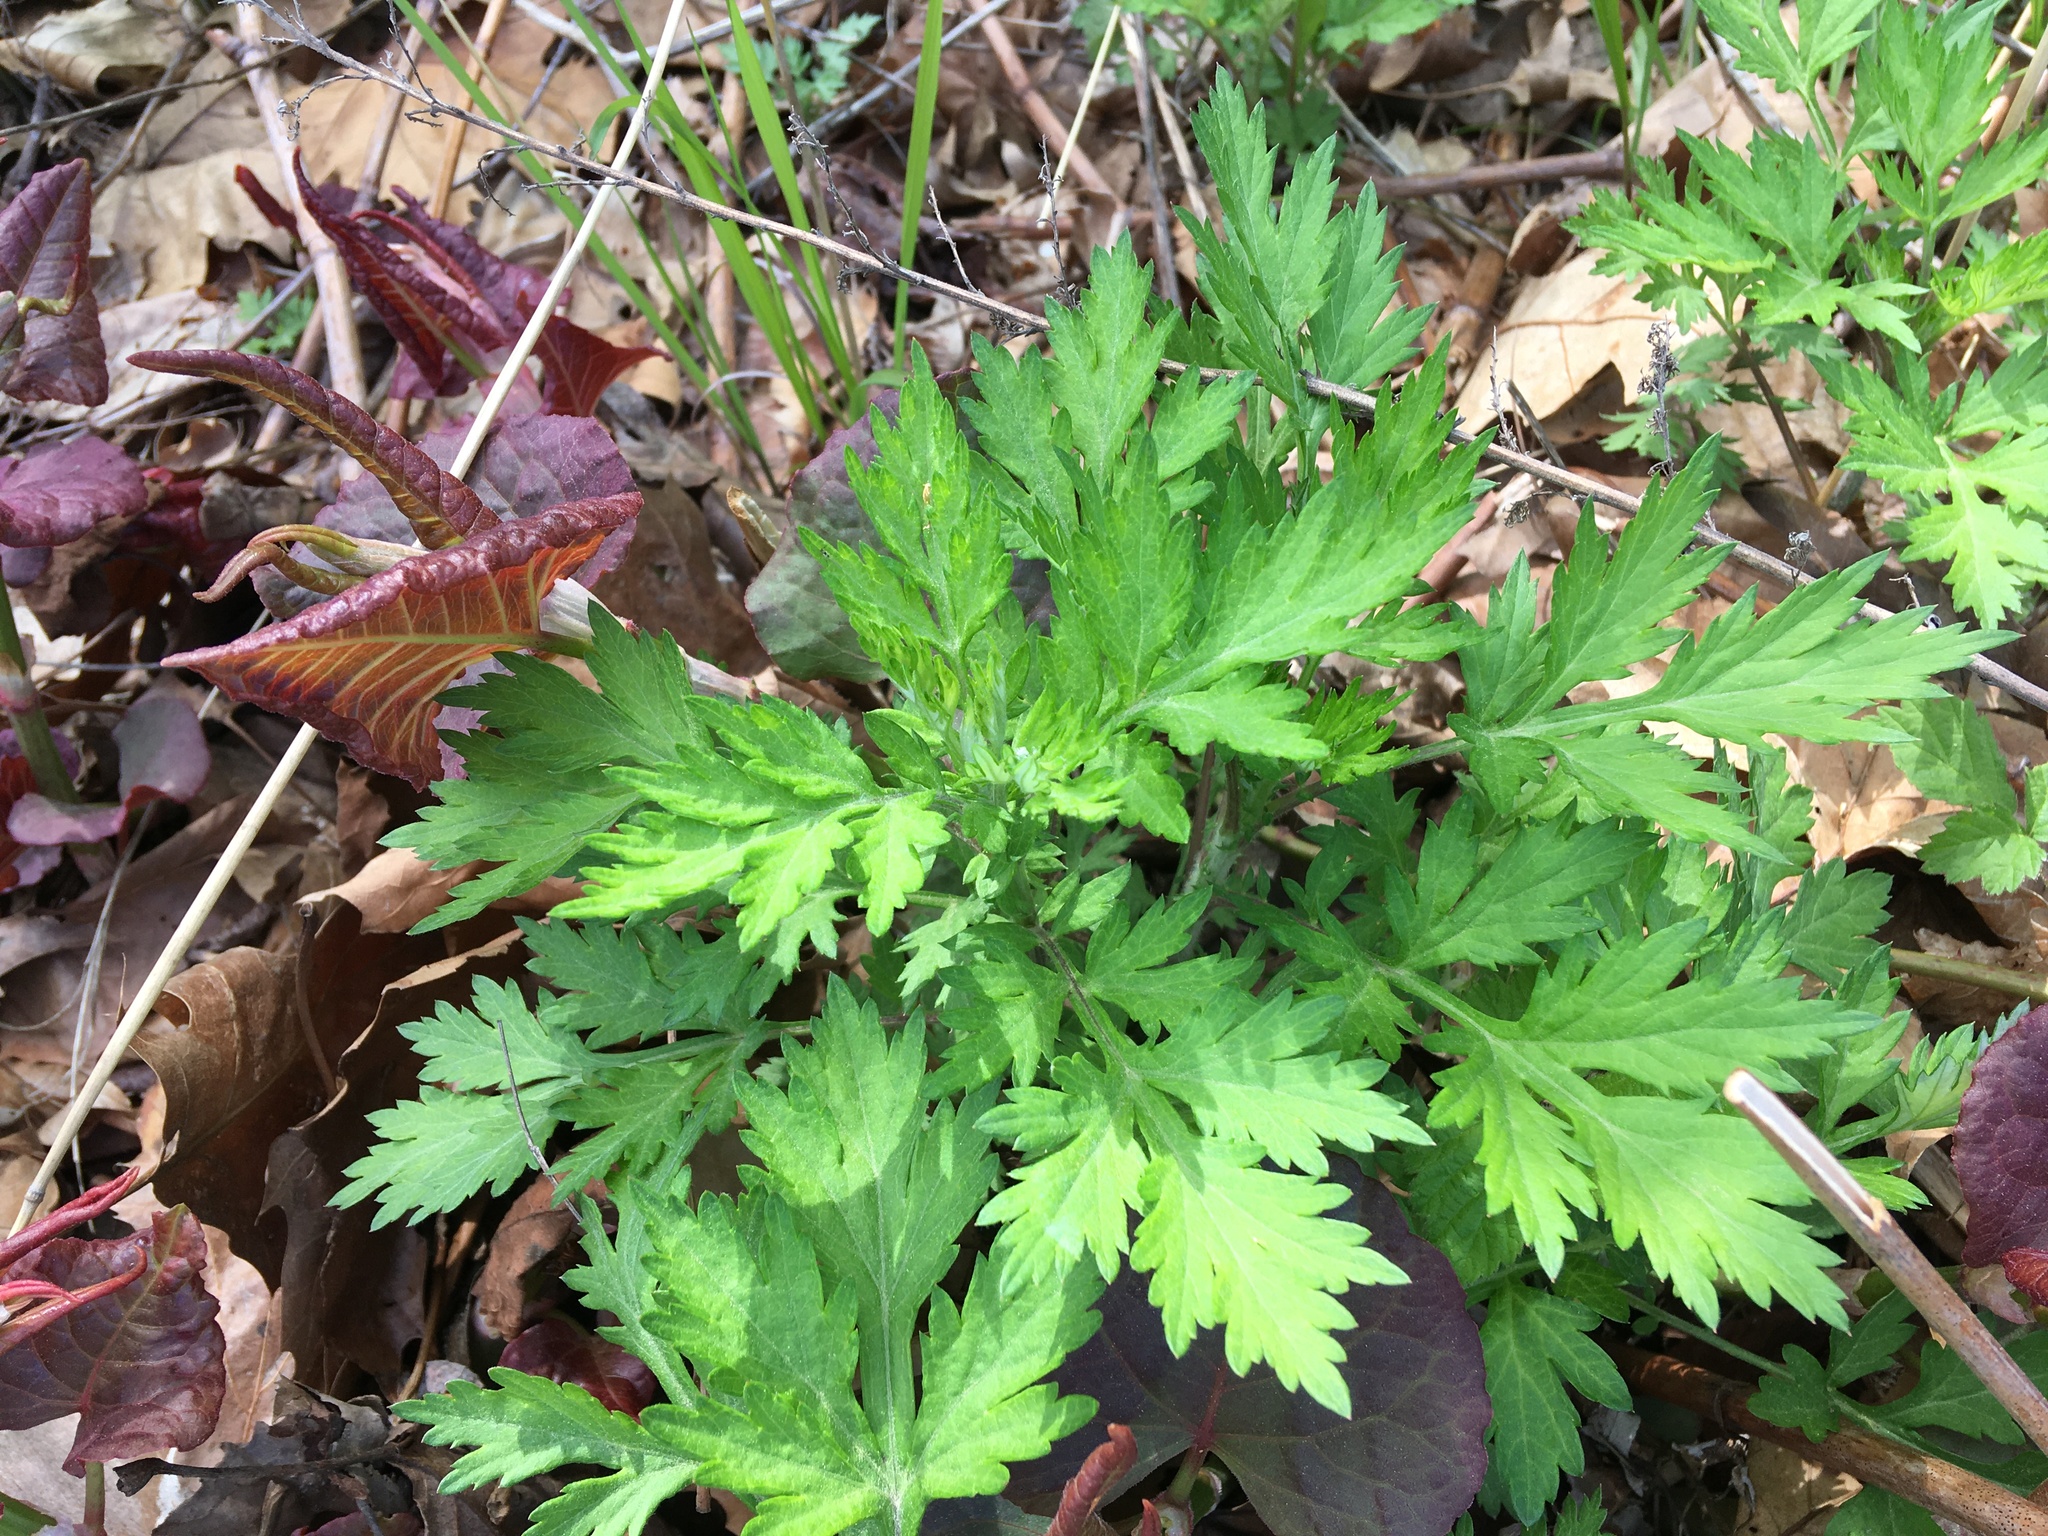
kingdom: Plantae
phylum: Tracheophyta
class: Magnoliopsida
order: Asterales
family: Asteraceae
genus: Artemisia
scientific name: Artemisia vulgaris
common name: Mugwort
